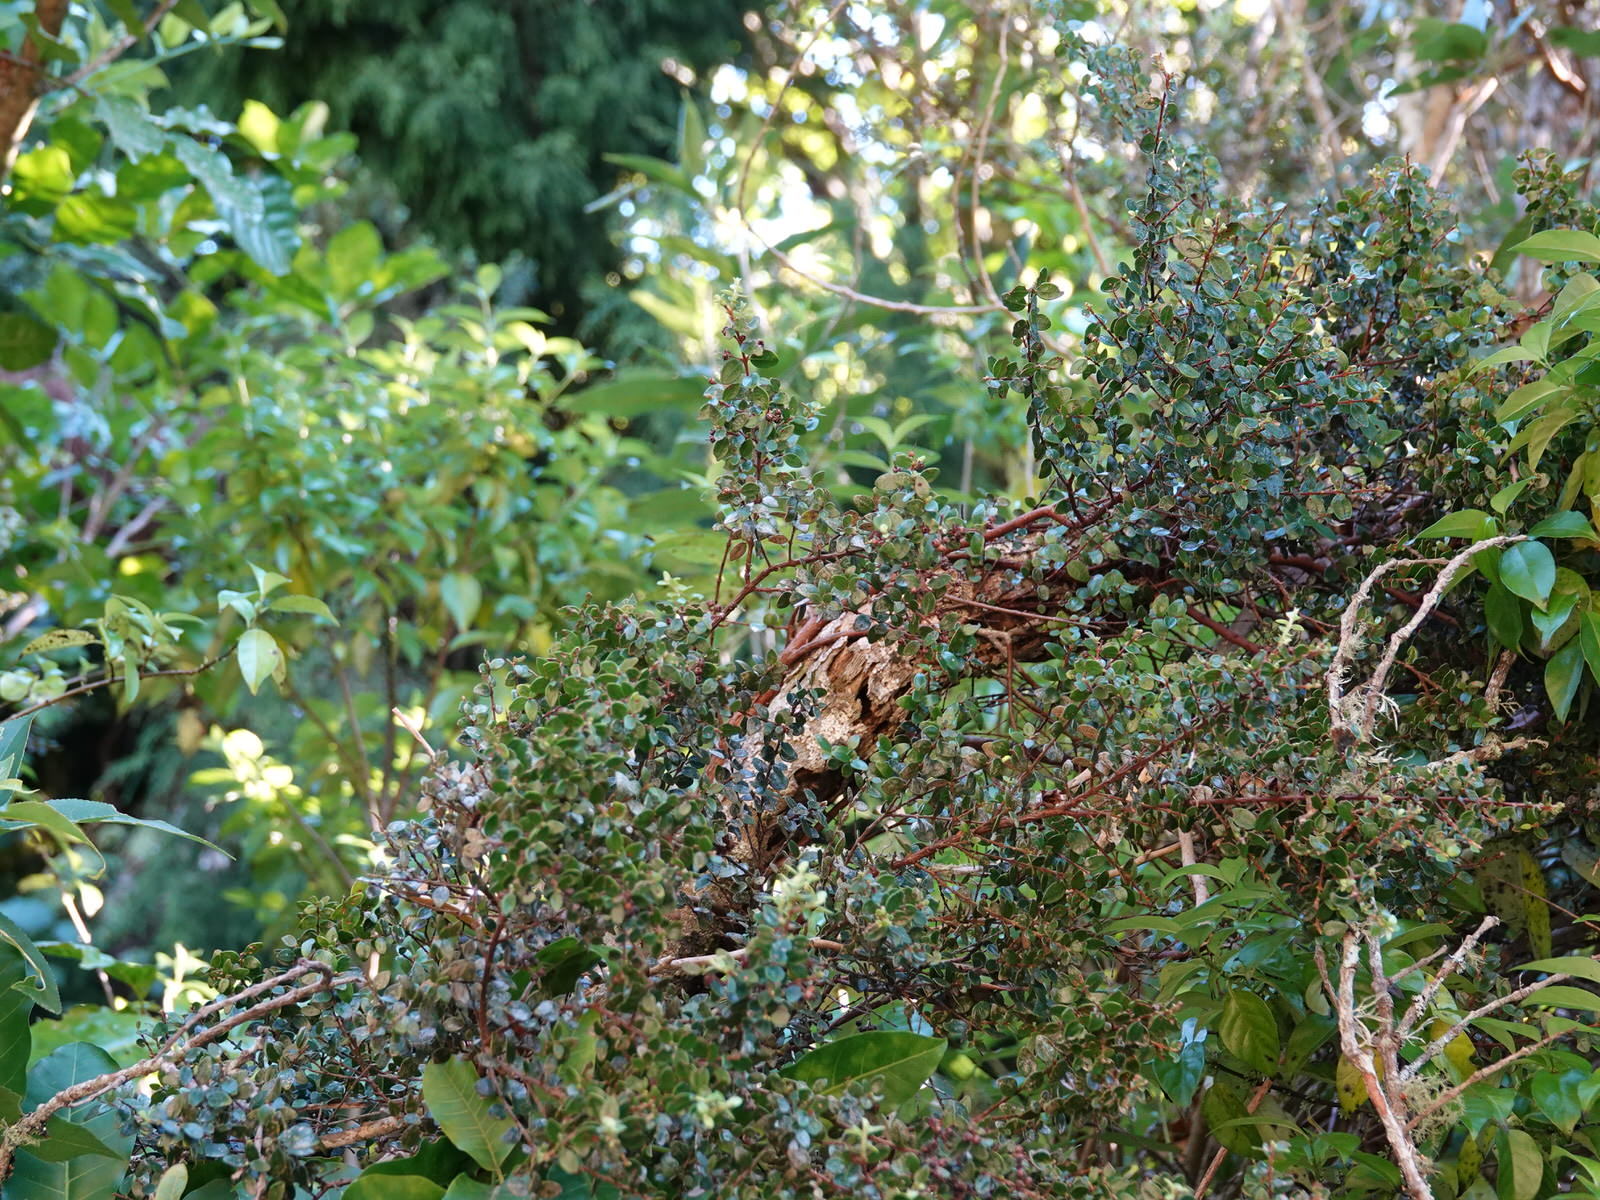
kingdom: Plantae
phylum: Tracheophyta
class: Magnoliopsida
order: Myrtales
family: Myrtaceae
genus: Metrosideros
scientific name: Metrosideros perforata
